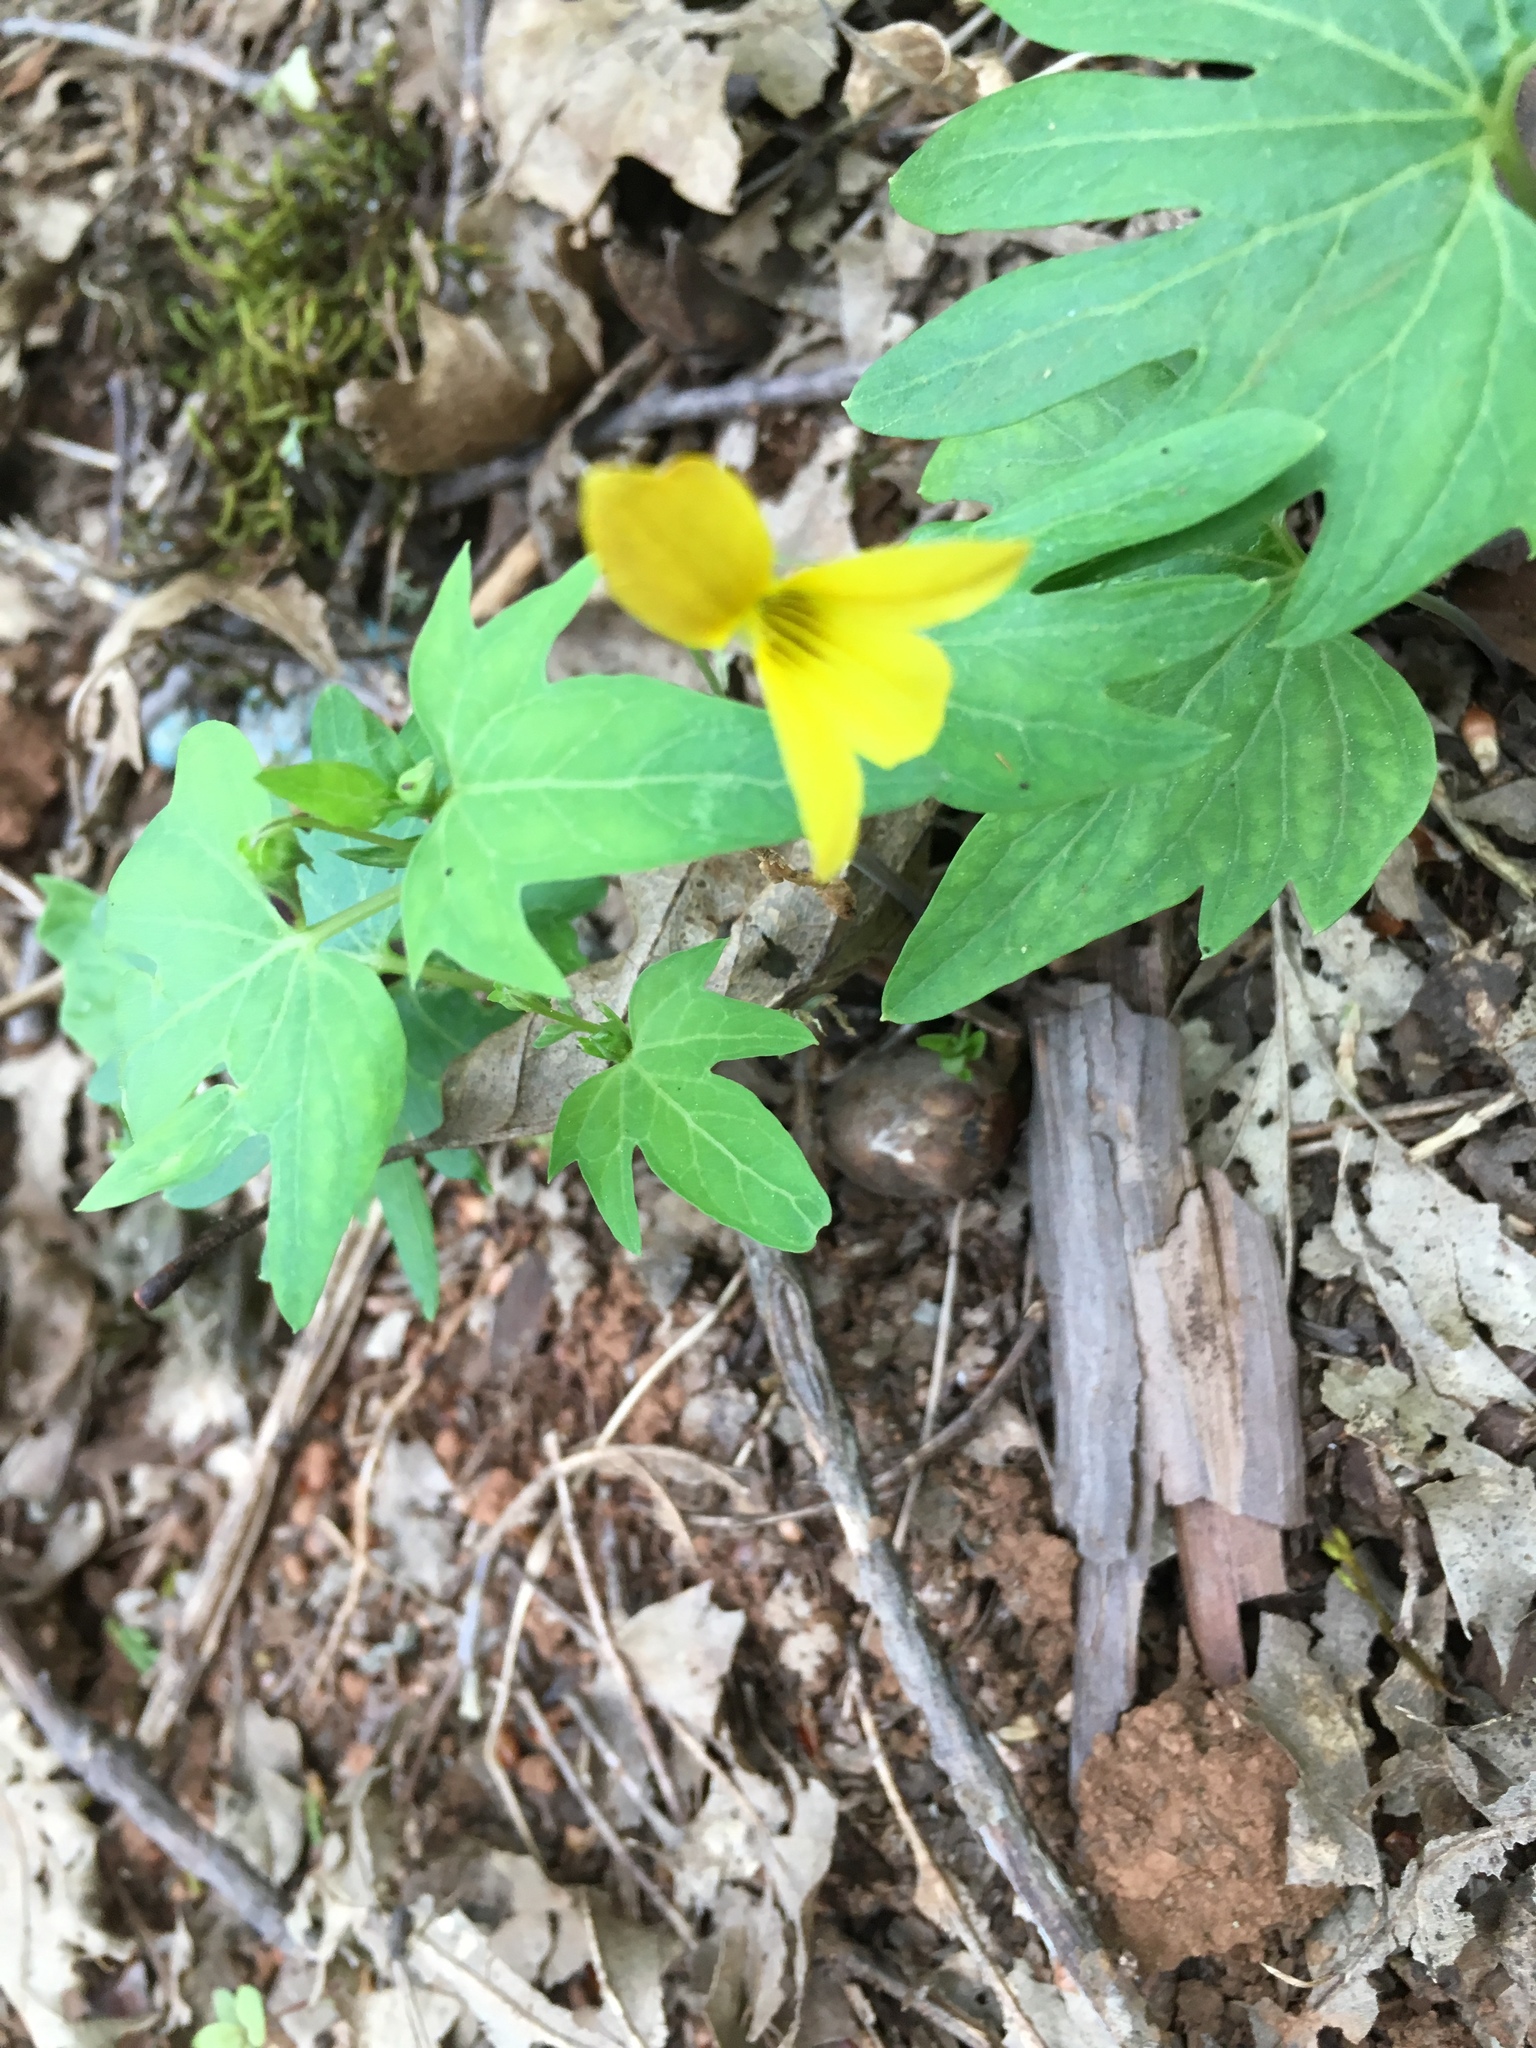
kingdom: Plantae
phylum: Tracheophyta
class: Magnoliopsida
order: Malpighiales
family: Violaceae
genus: Viola
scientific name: Viola lobata
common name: Pine violet
